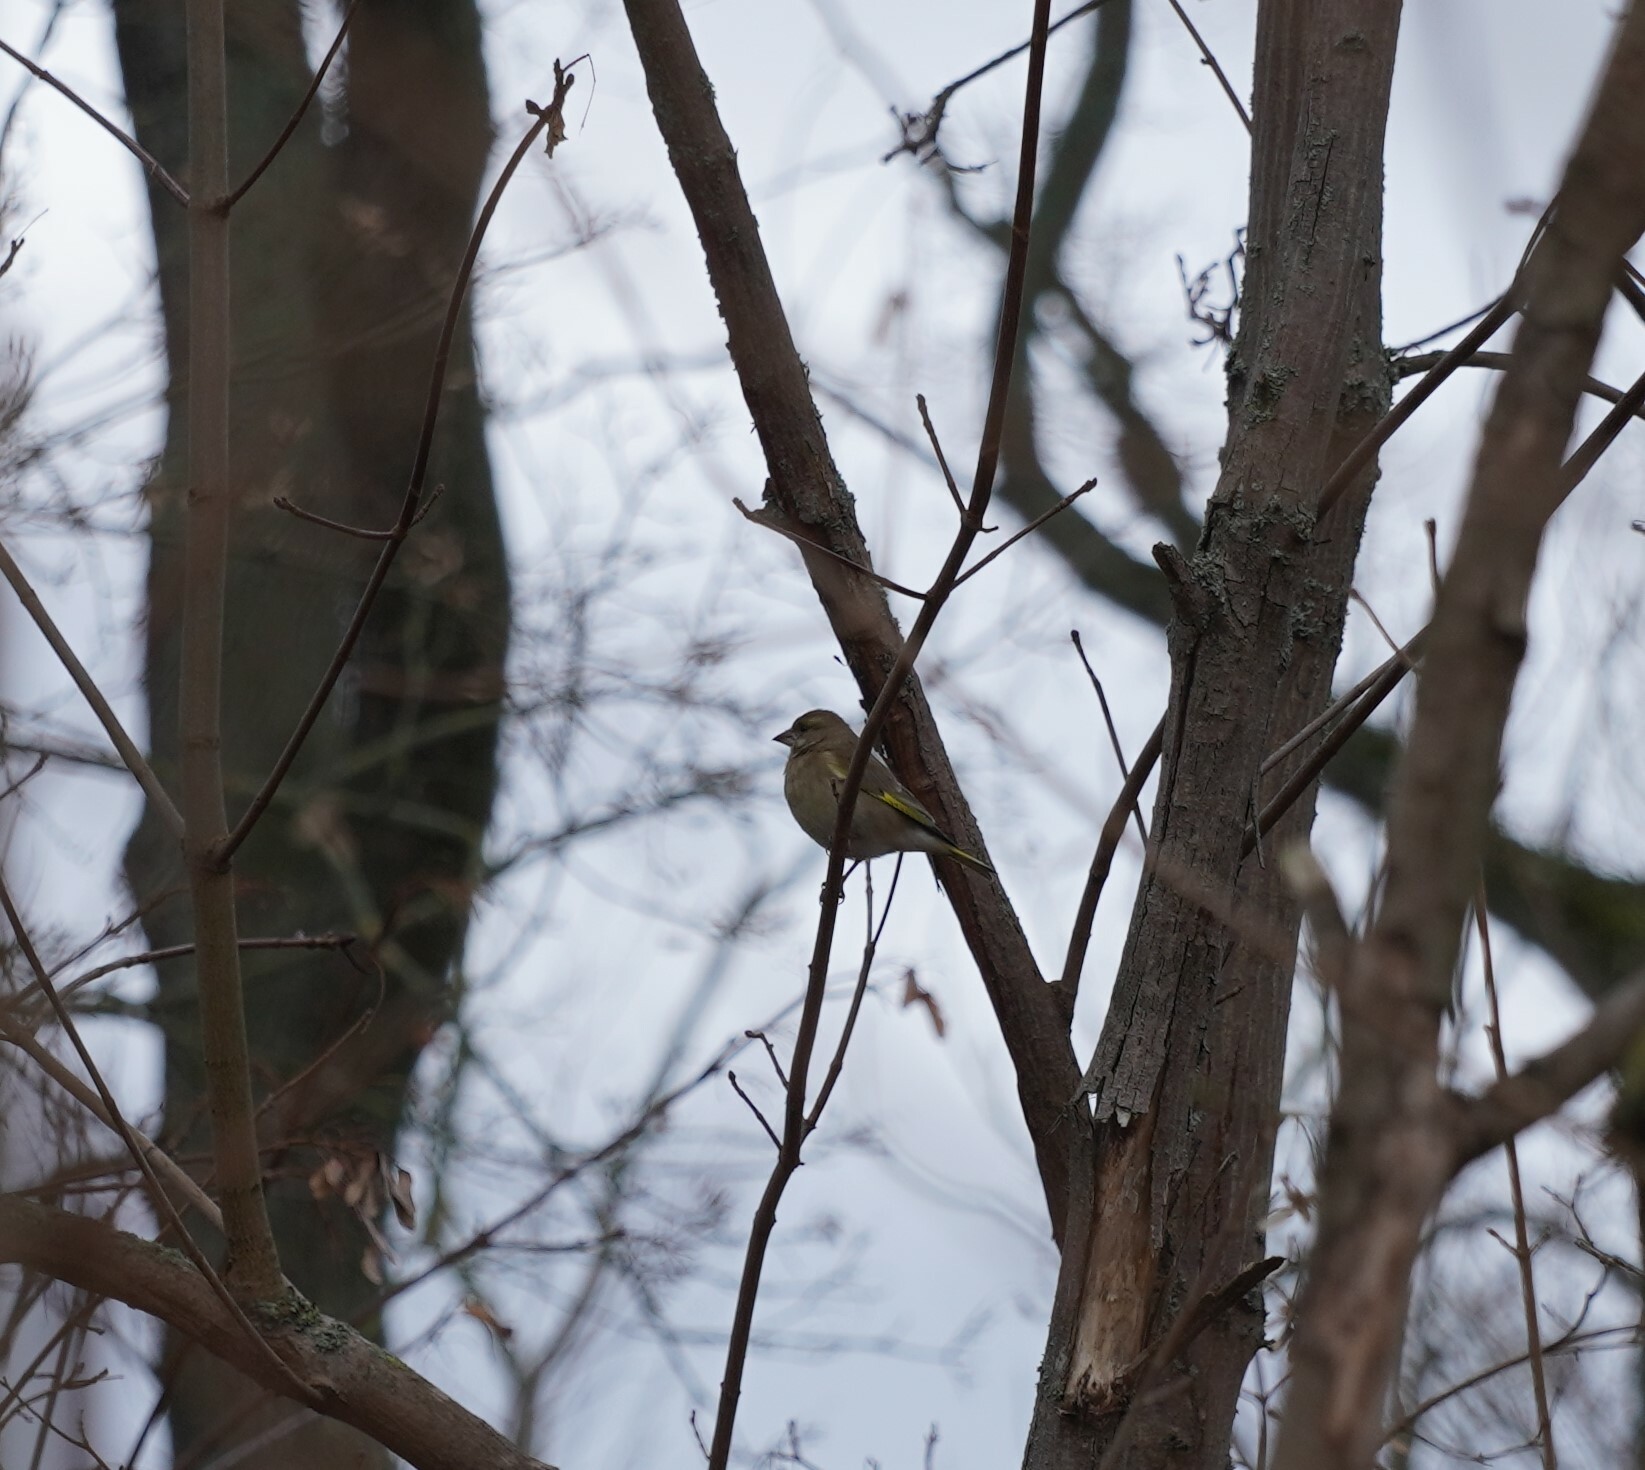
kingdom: Plantae
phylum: Tracheophyta
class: Liliopsida
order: Poales
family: Poaceae
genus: Chloris
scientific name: Chloris chloris
